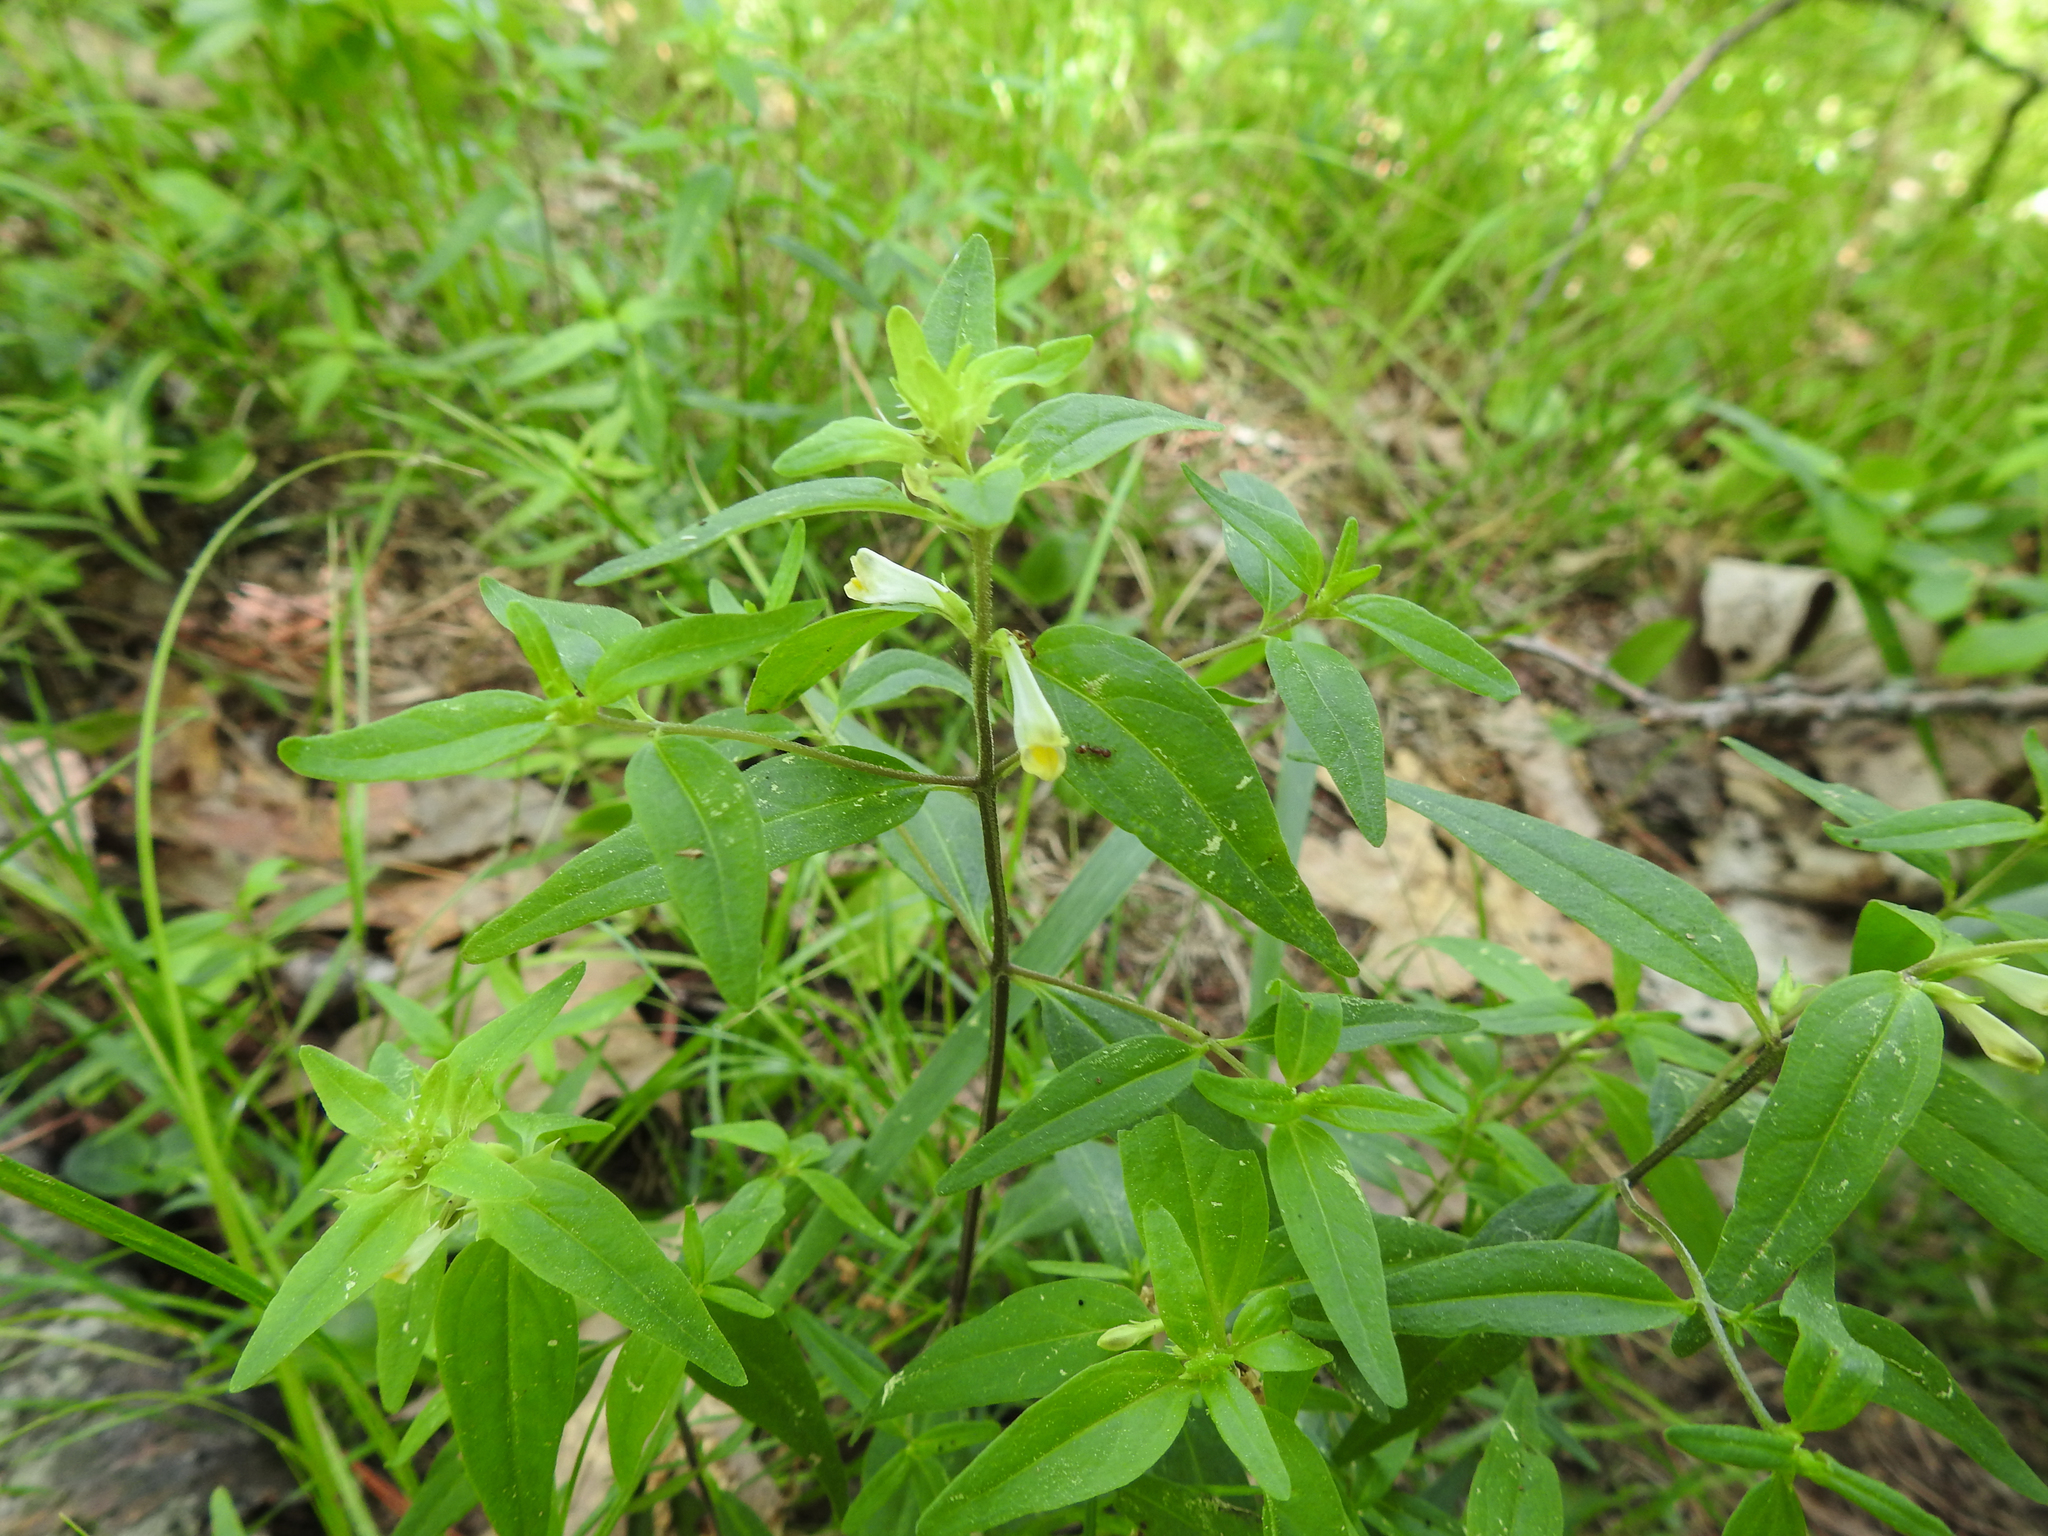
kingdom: Plantae
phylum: Tracheophyta
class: Magnoliopsida
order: Lamiales
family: Orobanchaceae
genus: Melampyrum
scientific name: Melampyrum lineare
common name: American cow-wheat
